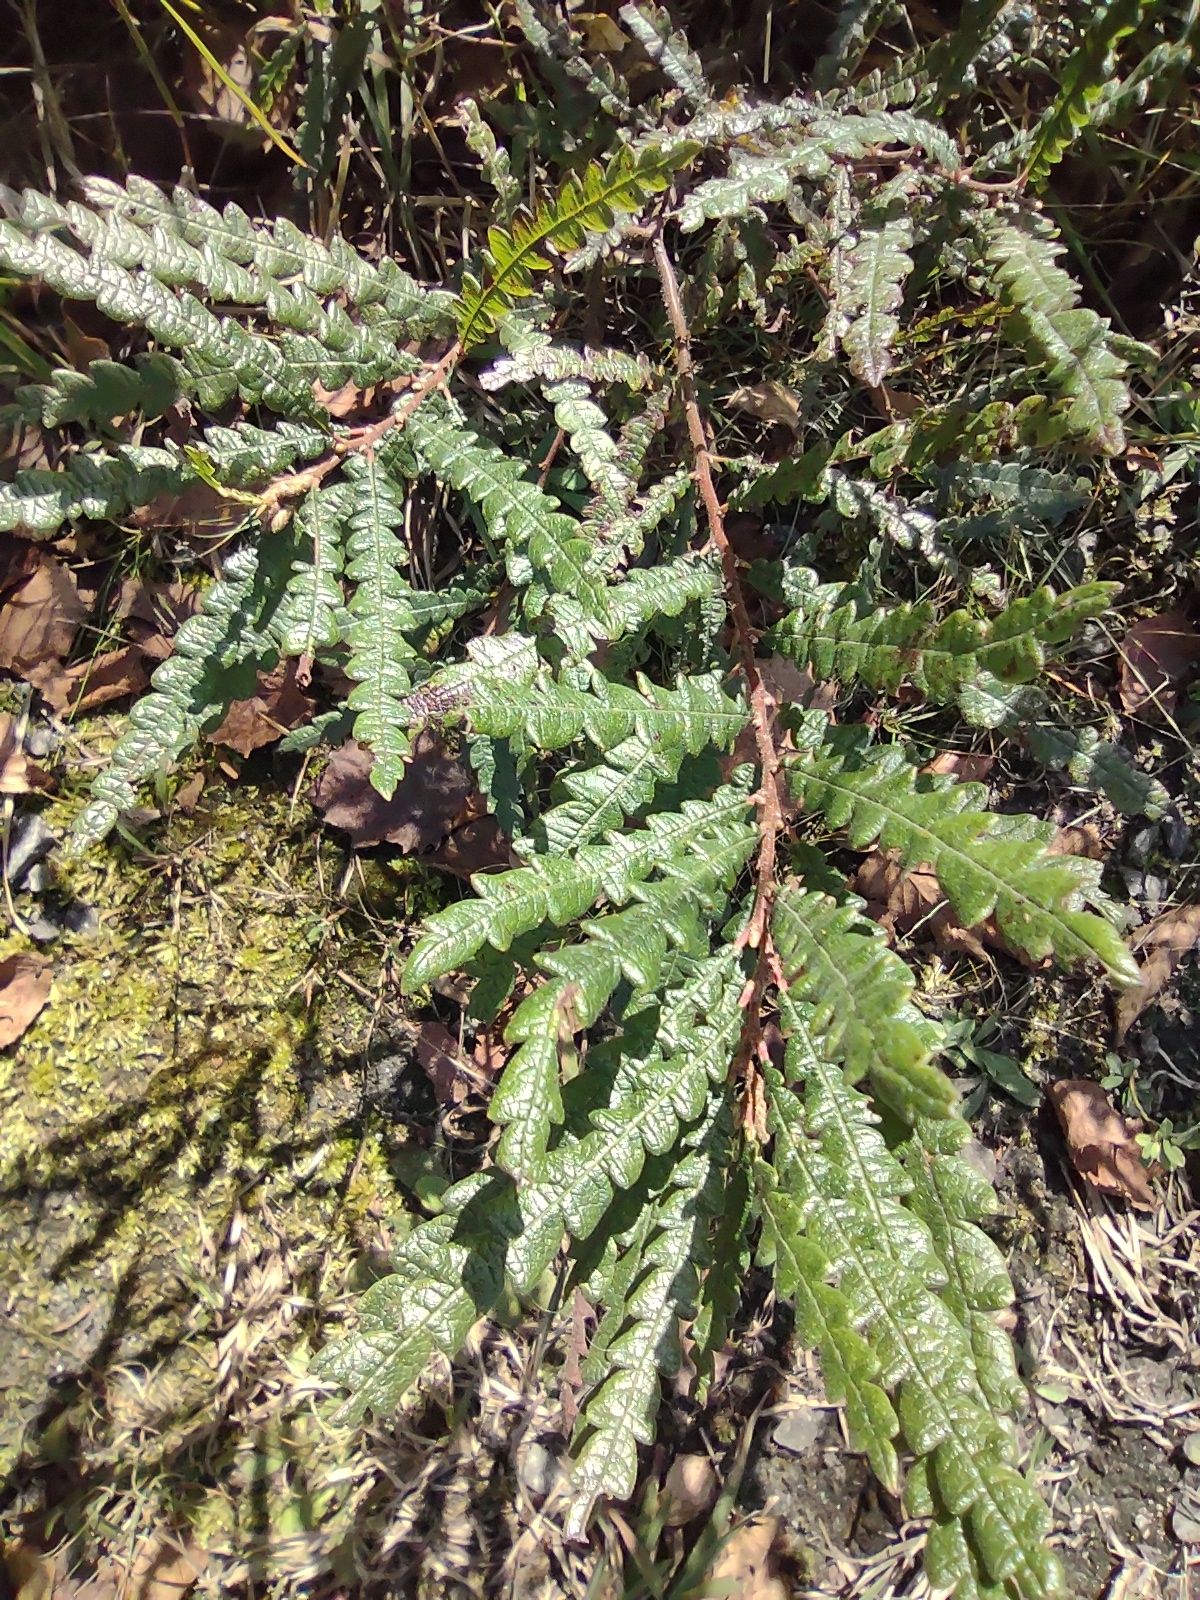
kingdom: Plantae
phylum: Tracheophyta
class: Magnoliopsida
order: Fagales
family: Myricaceae
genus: Comptonia
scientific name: Comptonia peregrina
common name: Sweet-fern
